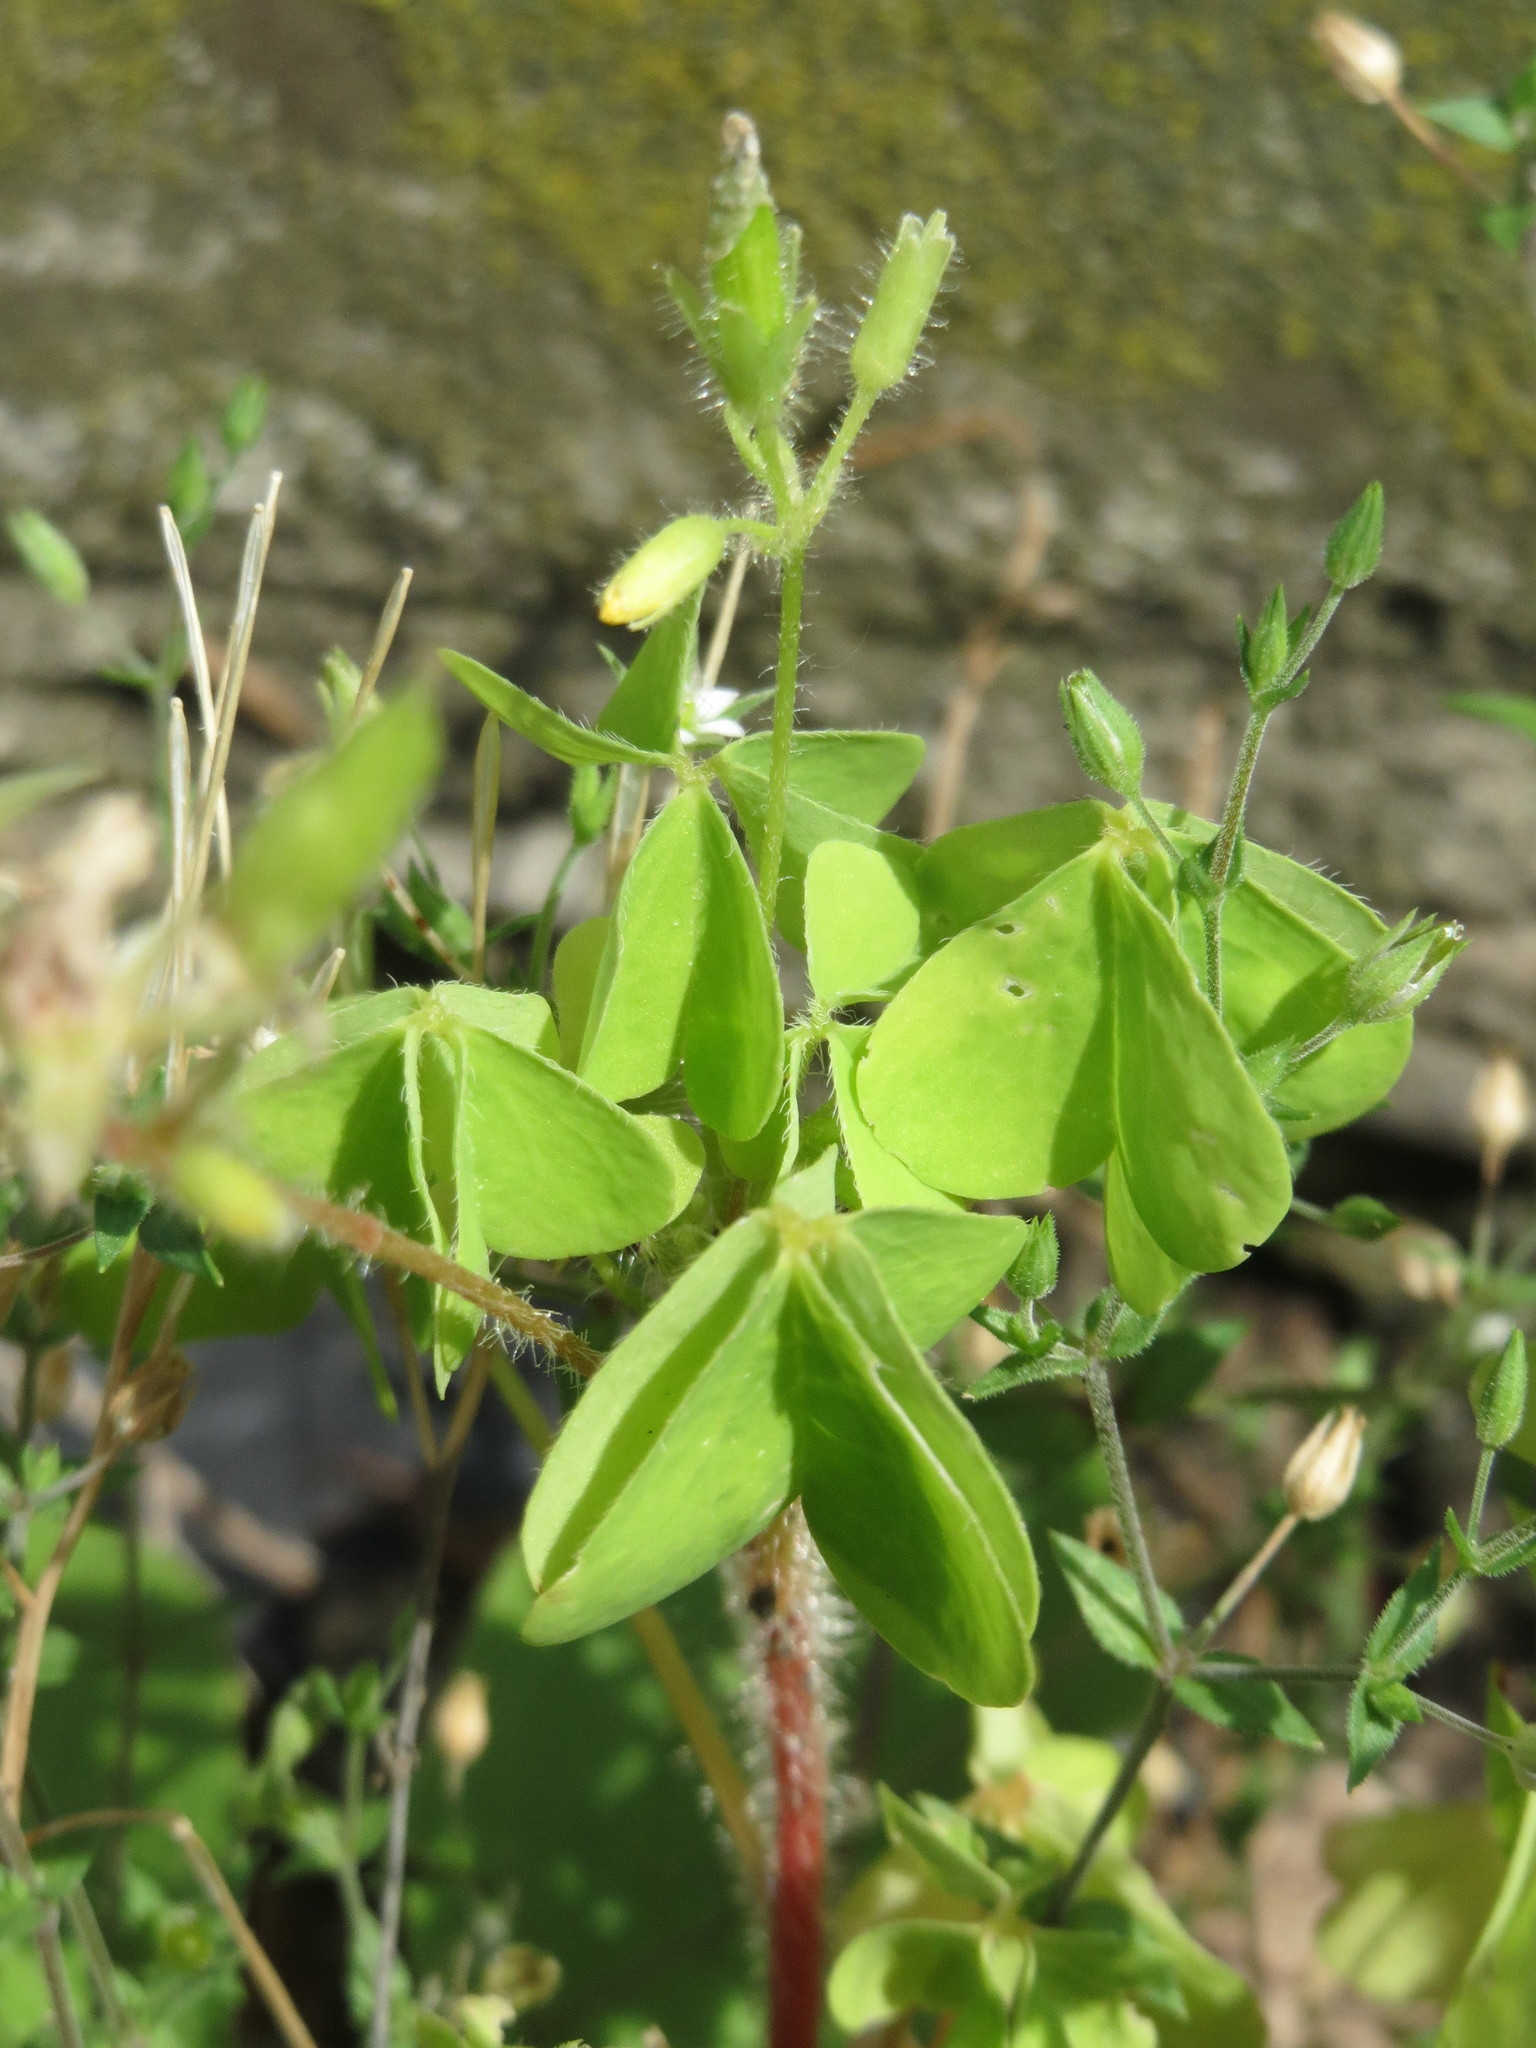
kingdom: Plantae
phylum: Tracheophyta
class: Magnoliopsida
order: Oxalidales
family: Oxalidaceae
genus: Oxalis
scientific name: Oxalis stricta
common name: Upright yellow-sorrel
